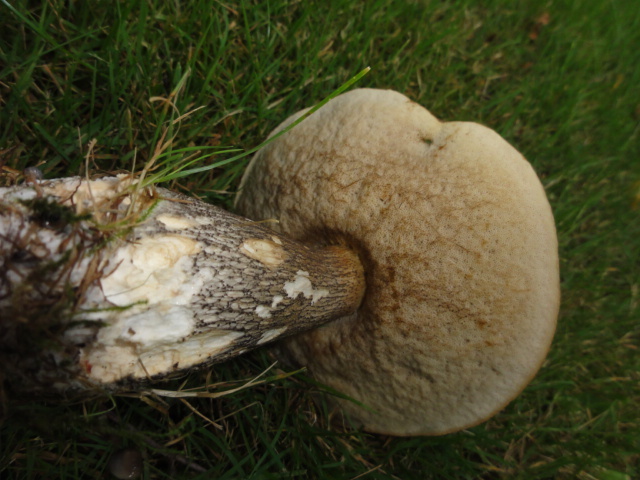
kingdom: Fungi
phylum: Basidiomycota
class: Agaricomycetes
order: Boletales
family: Boletaceae
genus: Leccinum
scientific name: Leccinum scabrum
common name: Blushing bolete
